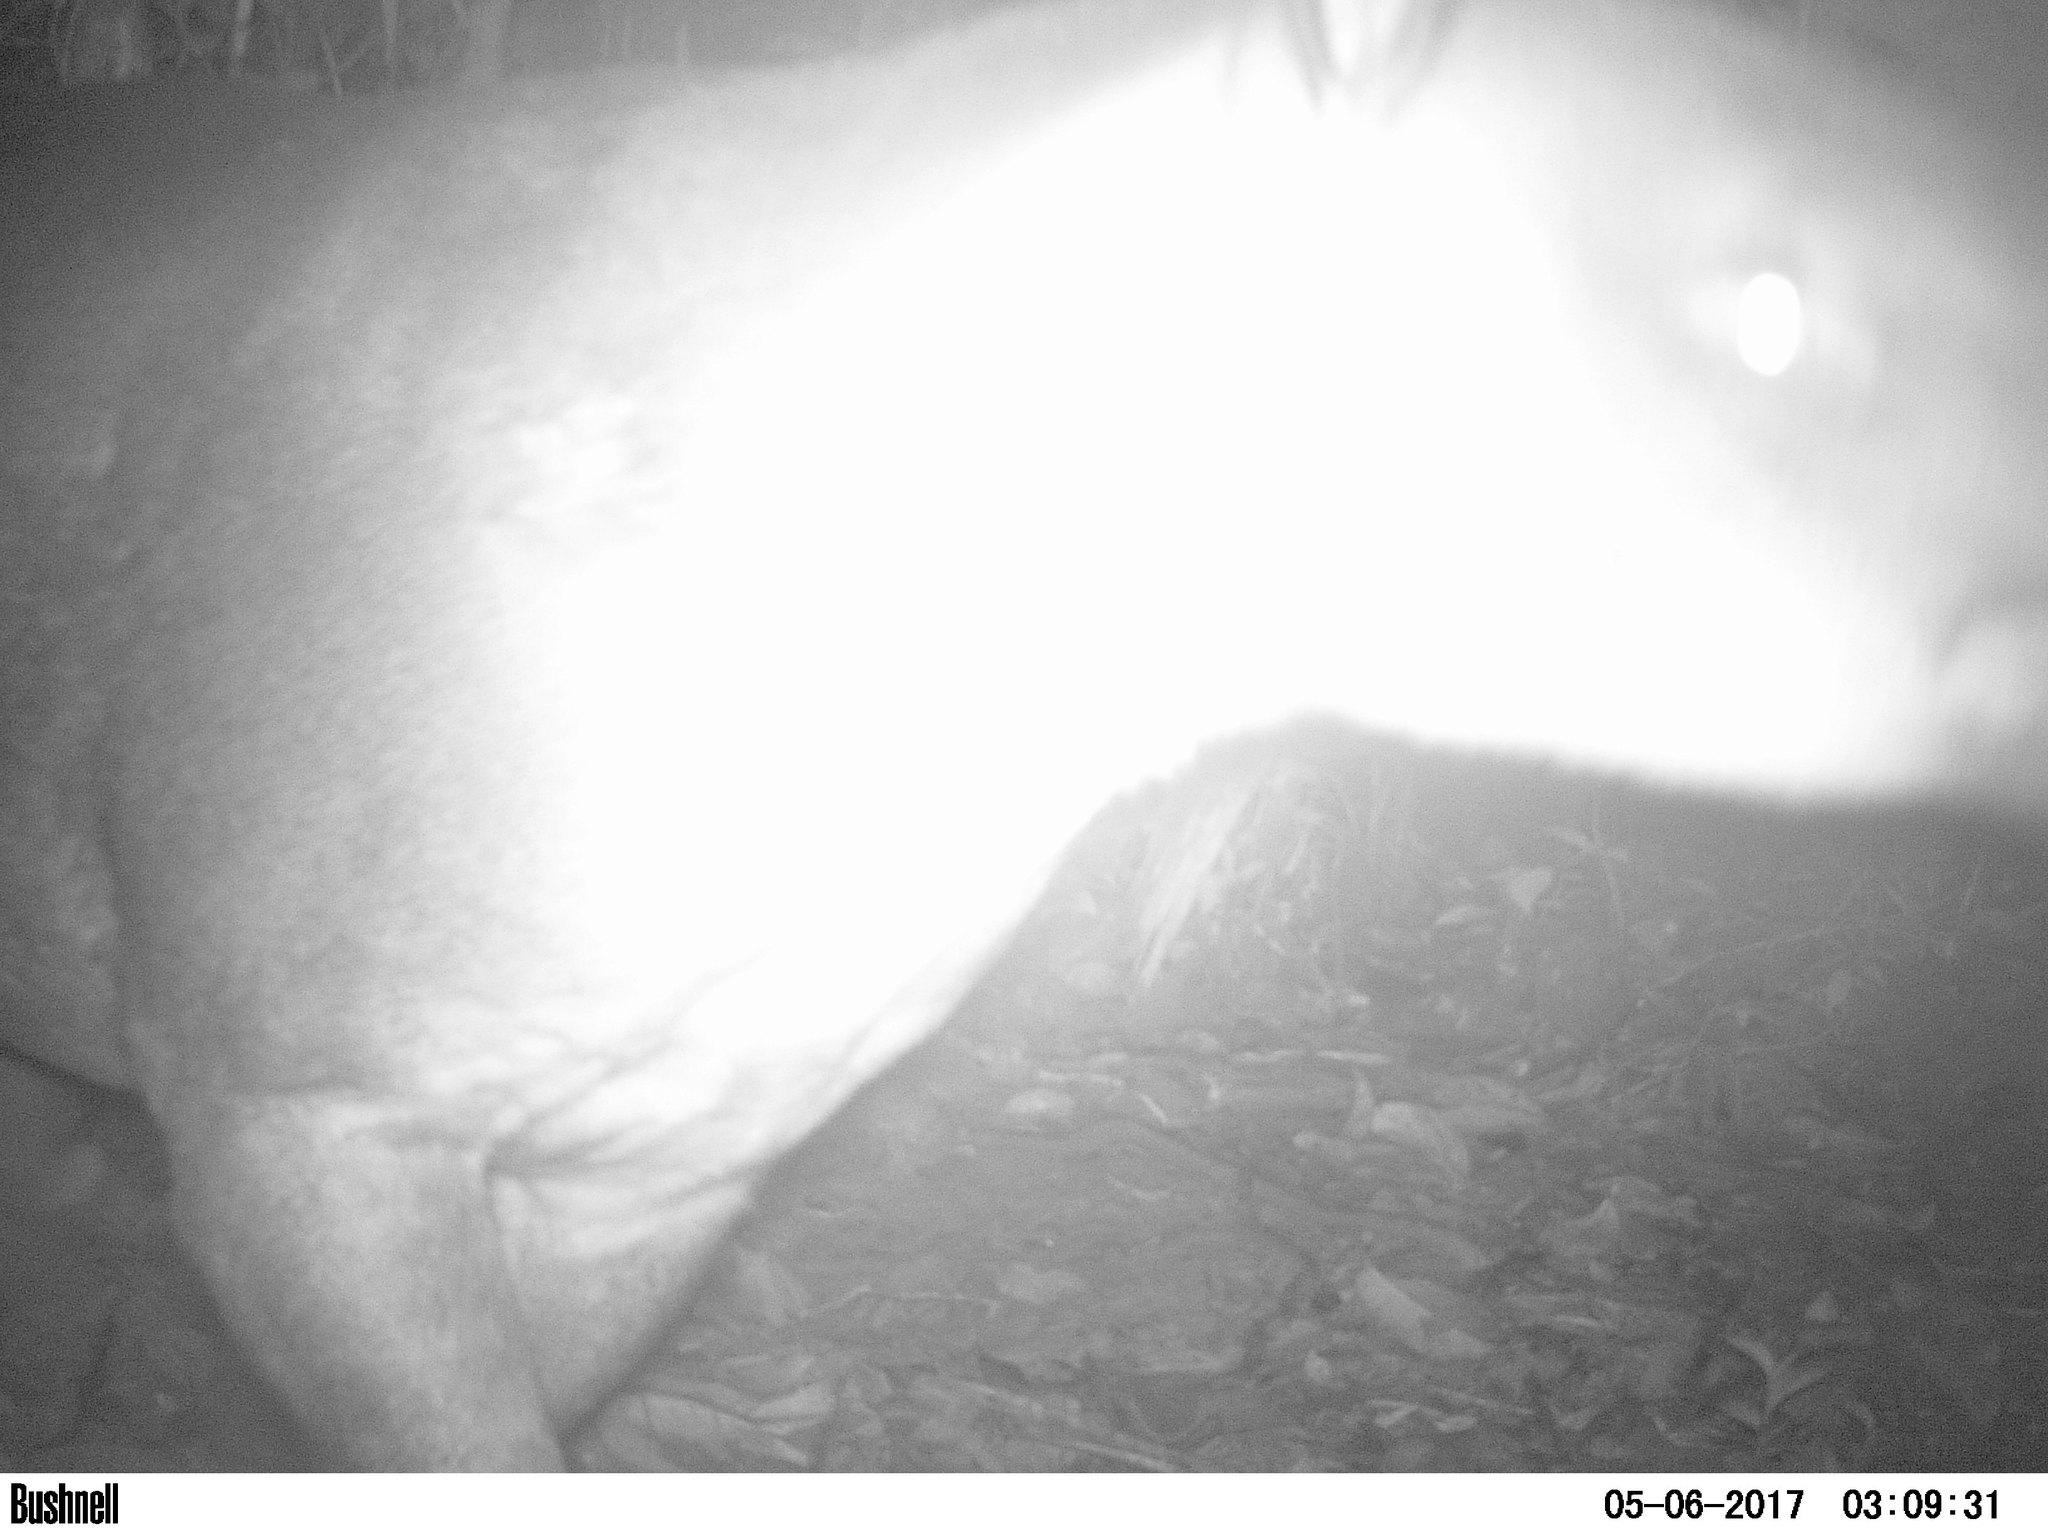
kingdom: Animalia
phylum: Chordata
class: Mammalia
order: Perissodactyla
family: Tapiridae
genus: Tapirella
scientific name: Tapirella bairdii
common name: Baird's tapir
